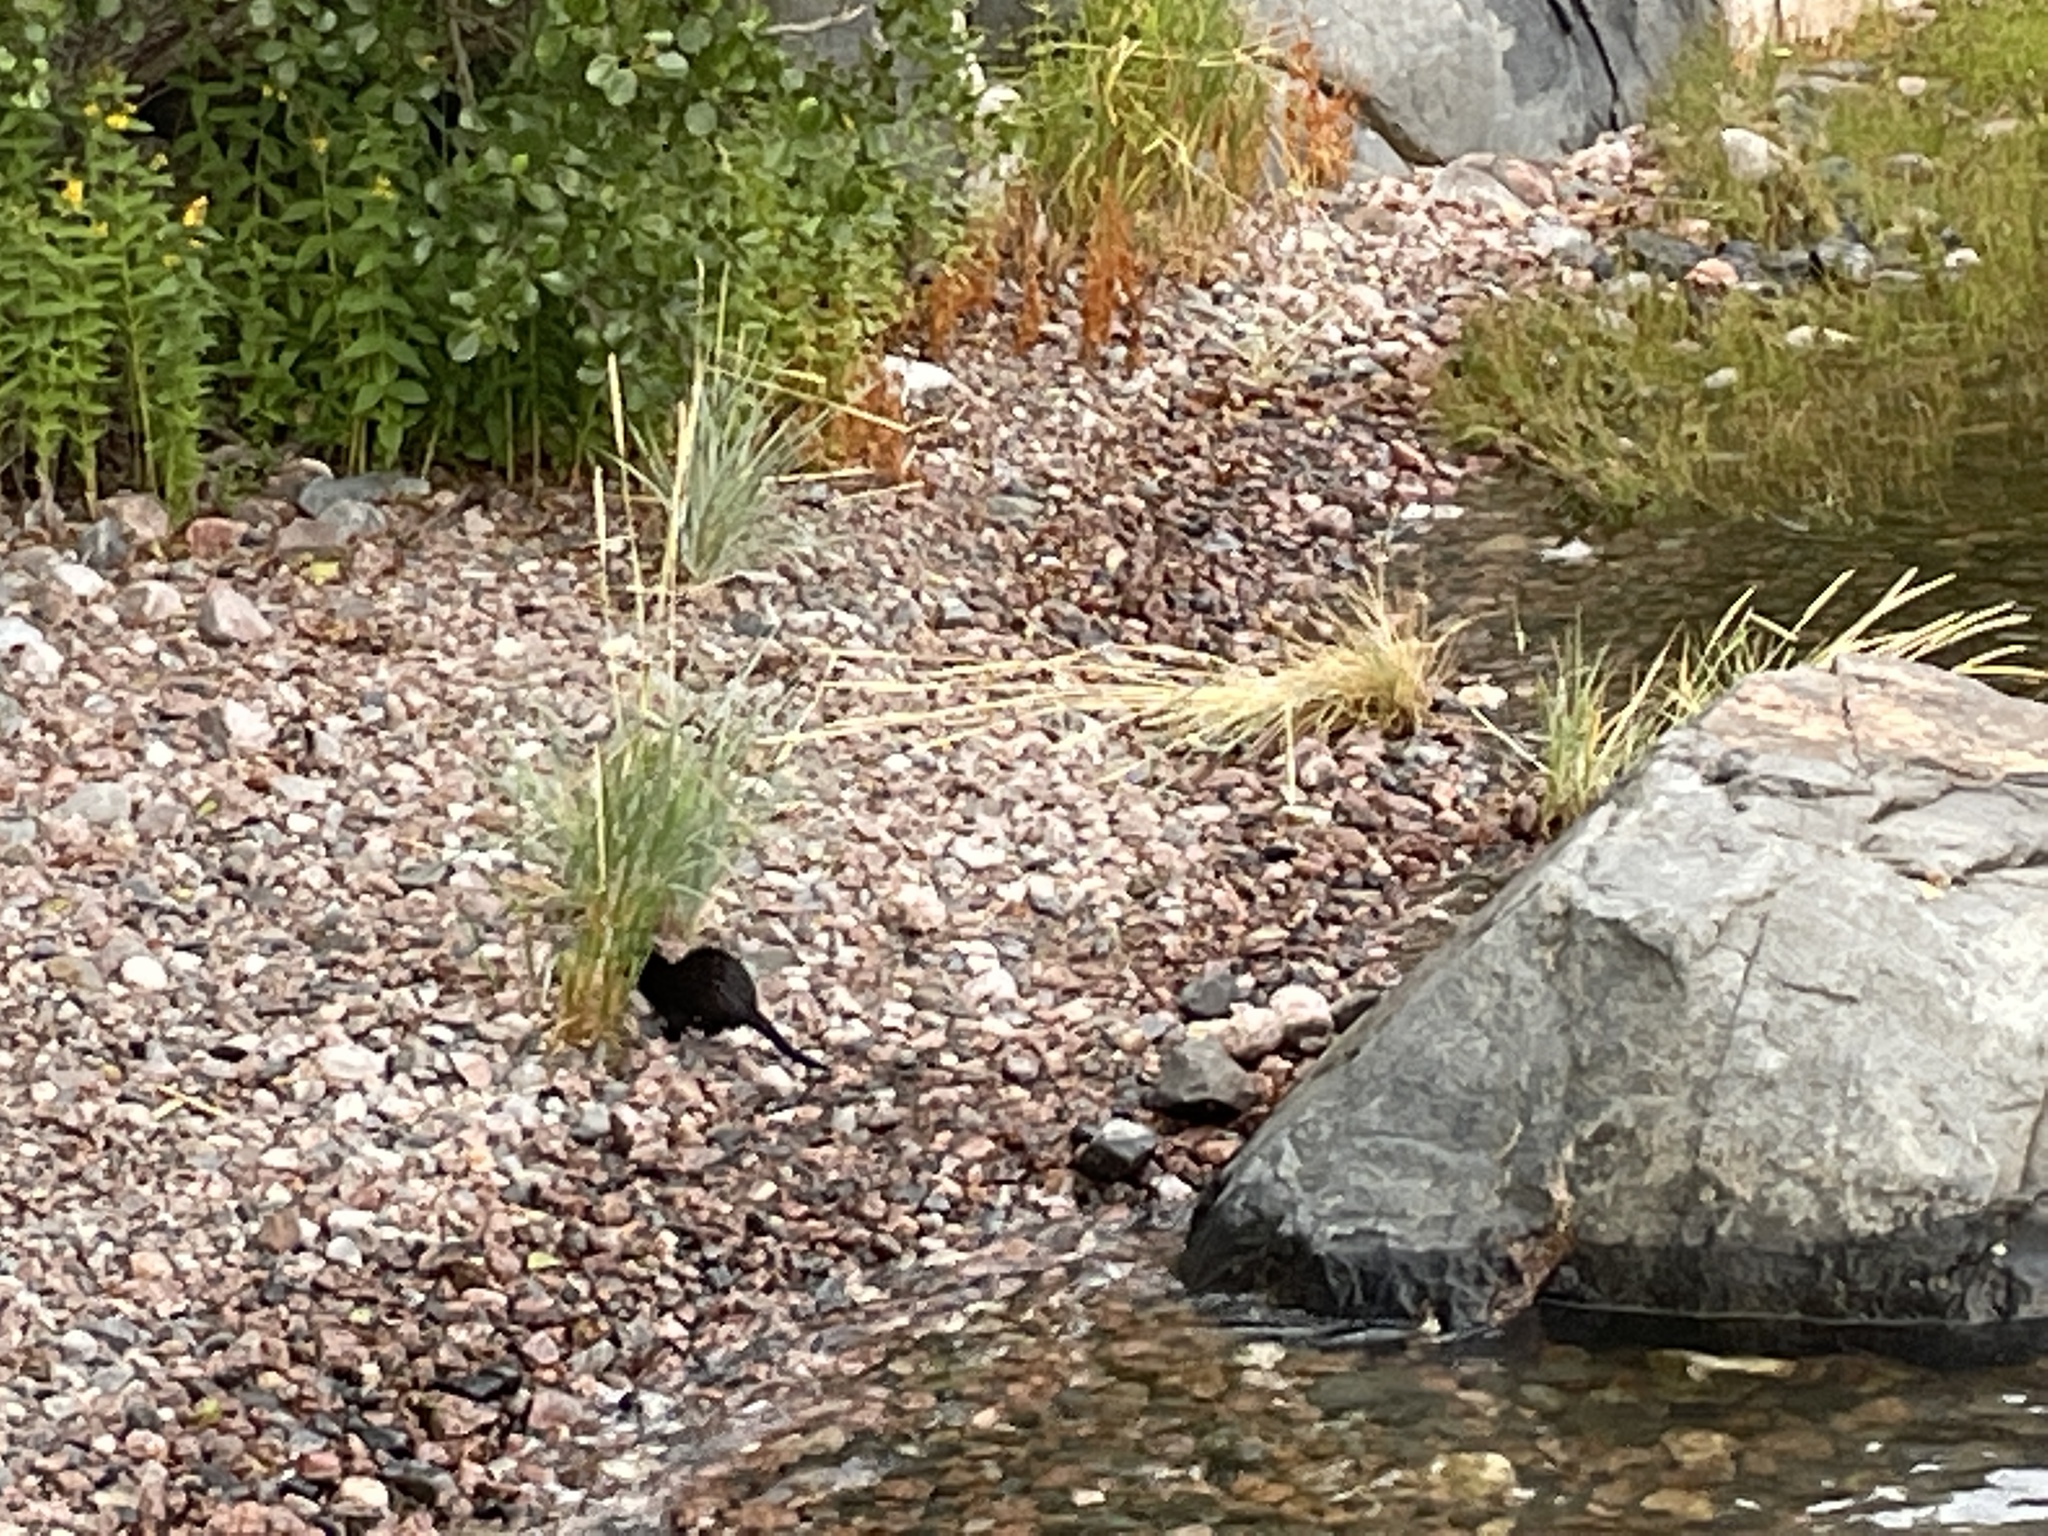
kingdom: Animalia
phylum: Chordata
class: Mammalia
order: Carnivora
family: Mustelidae
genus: Mustela
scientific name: Mustela
